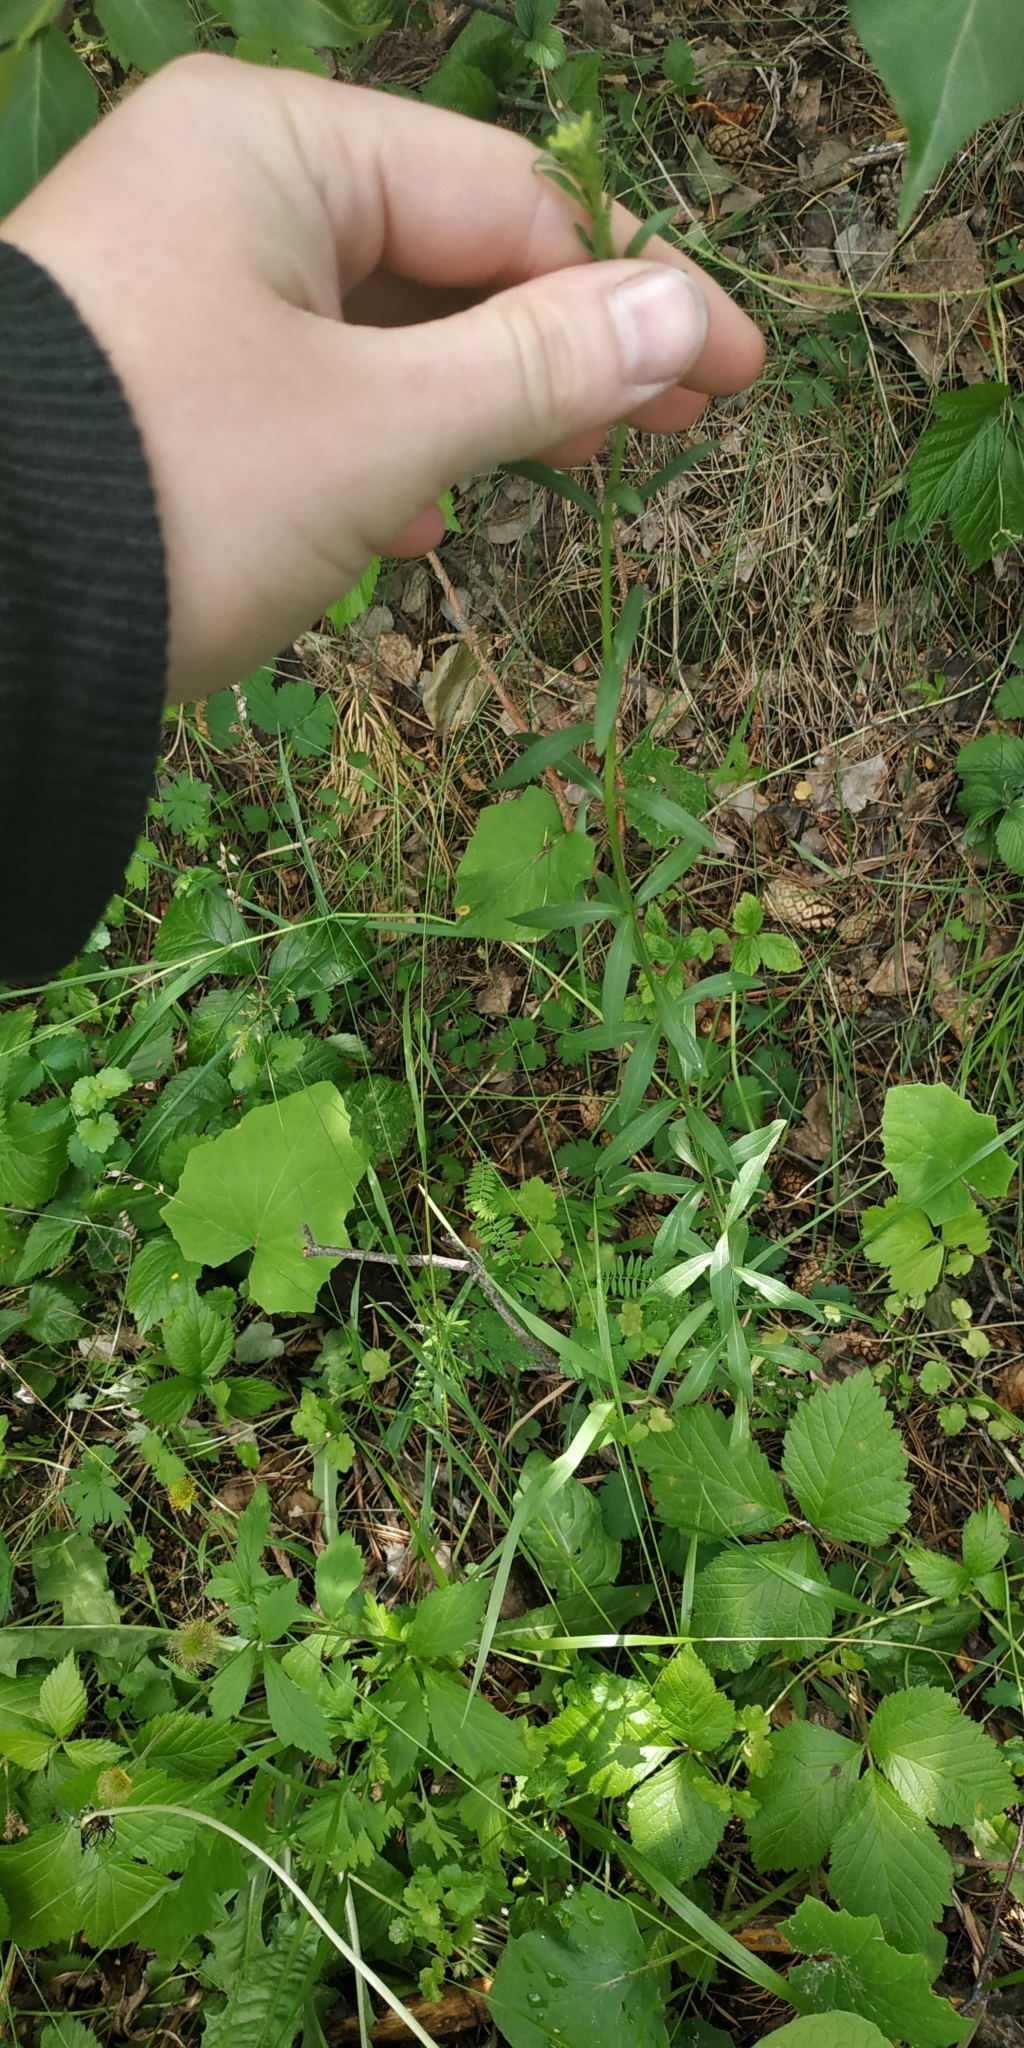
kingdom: Plantae
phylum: Tracheophyta
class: Magnoliopsida
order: Brassicales
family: Brassicaceae
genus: Erysimum
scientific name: Erysimum cheiranthoides
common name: Treacle mustard
